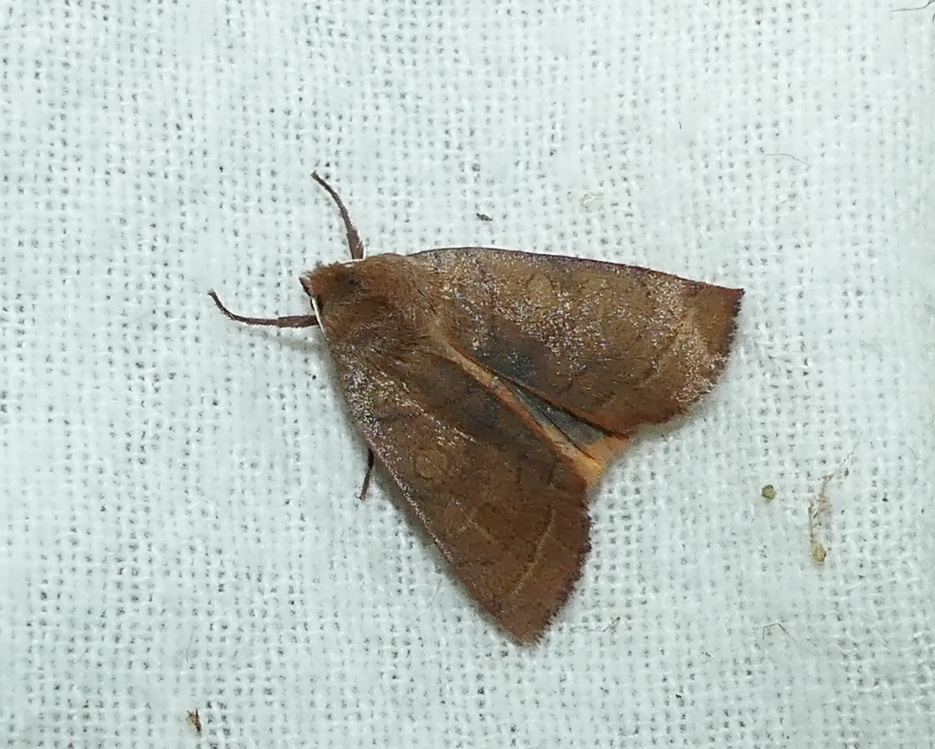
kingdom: Animalia
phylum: Arthropoda
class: Insecta
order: Lepidoptera
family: Noctuidae
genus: Epiglaea
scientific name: Epiglaea apiata
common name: Pointed sallow
